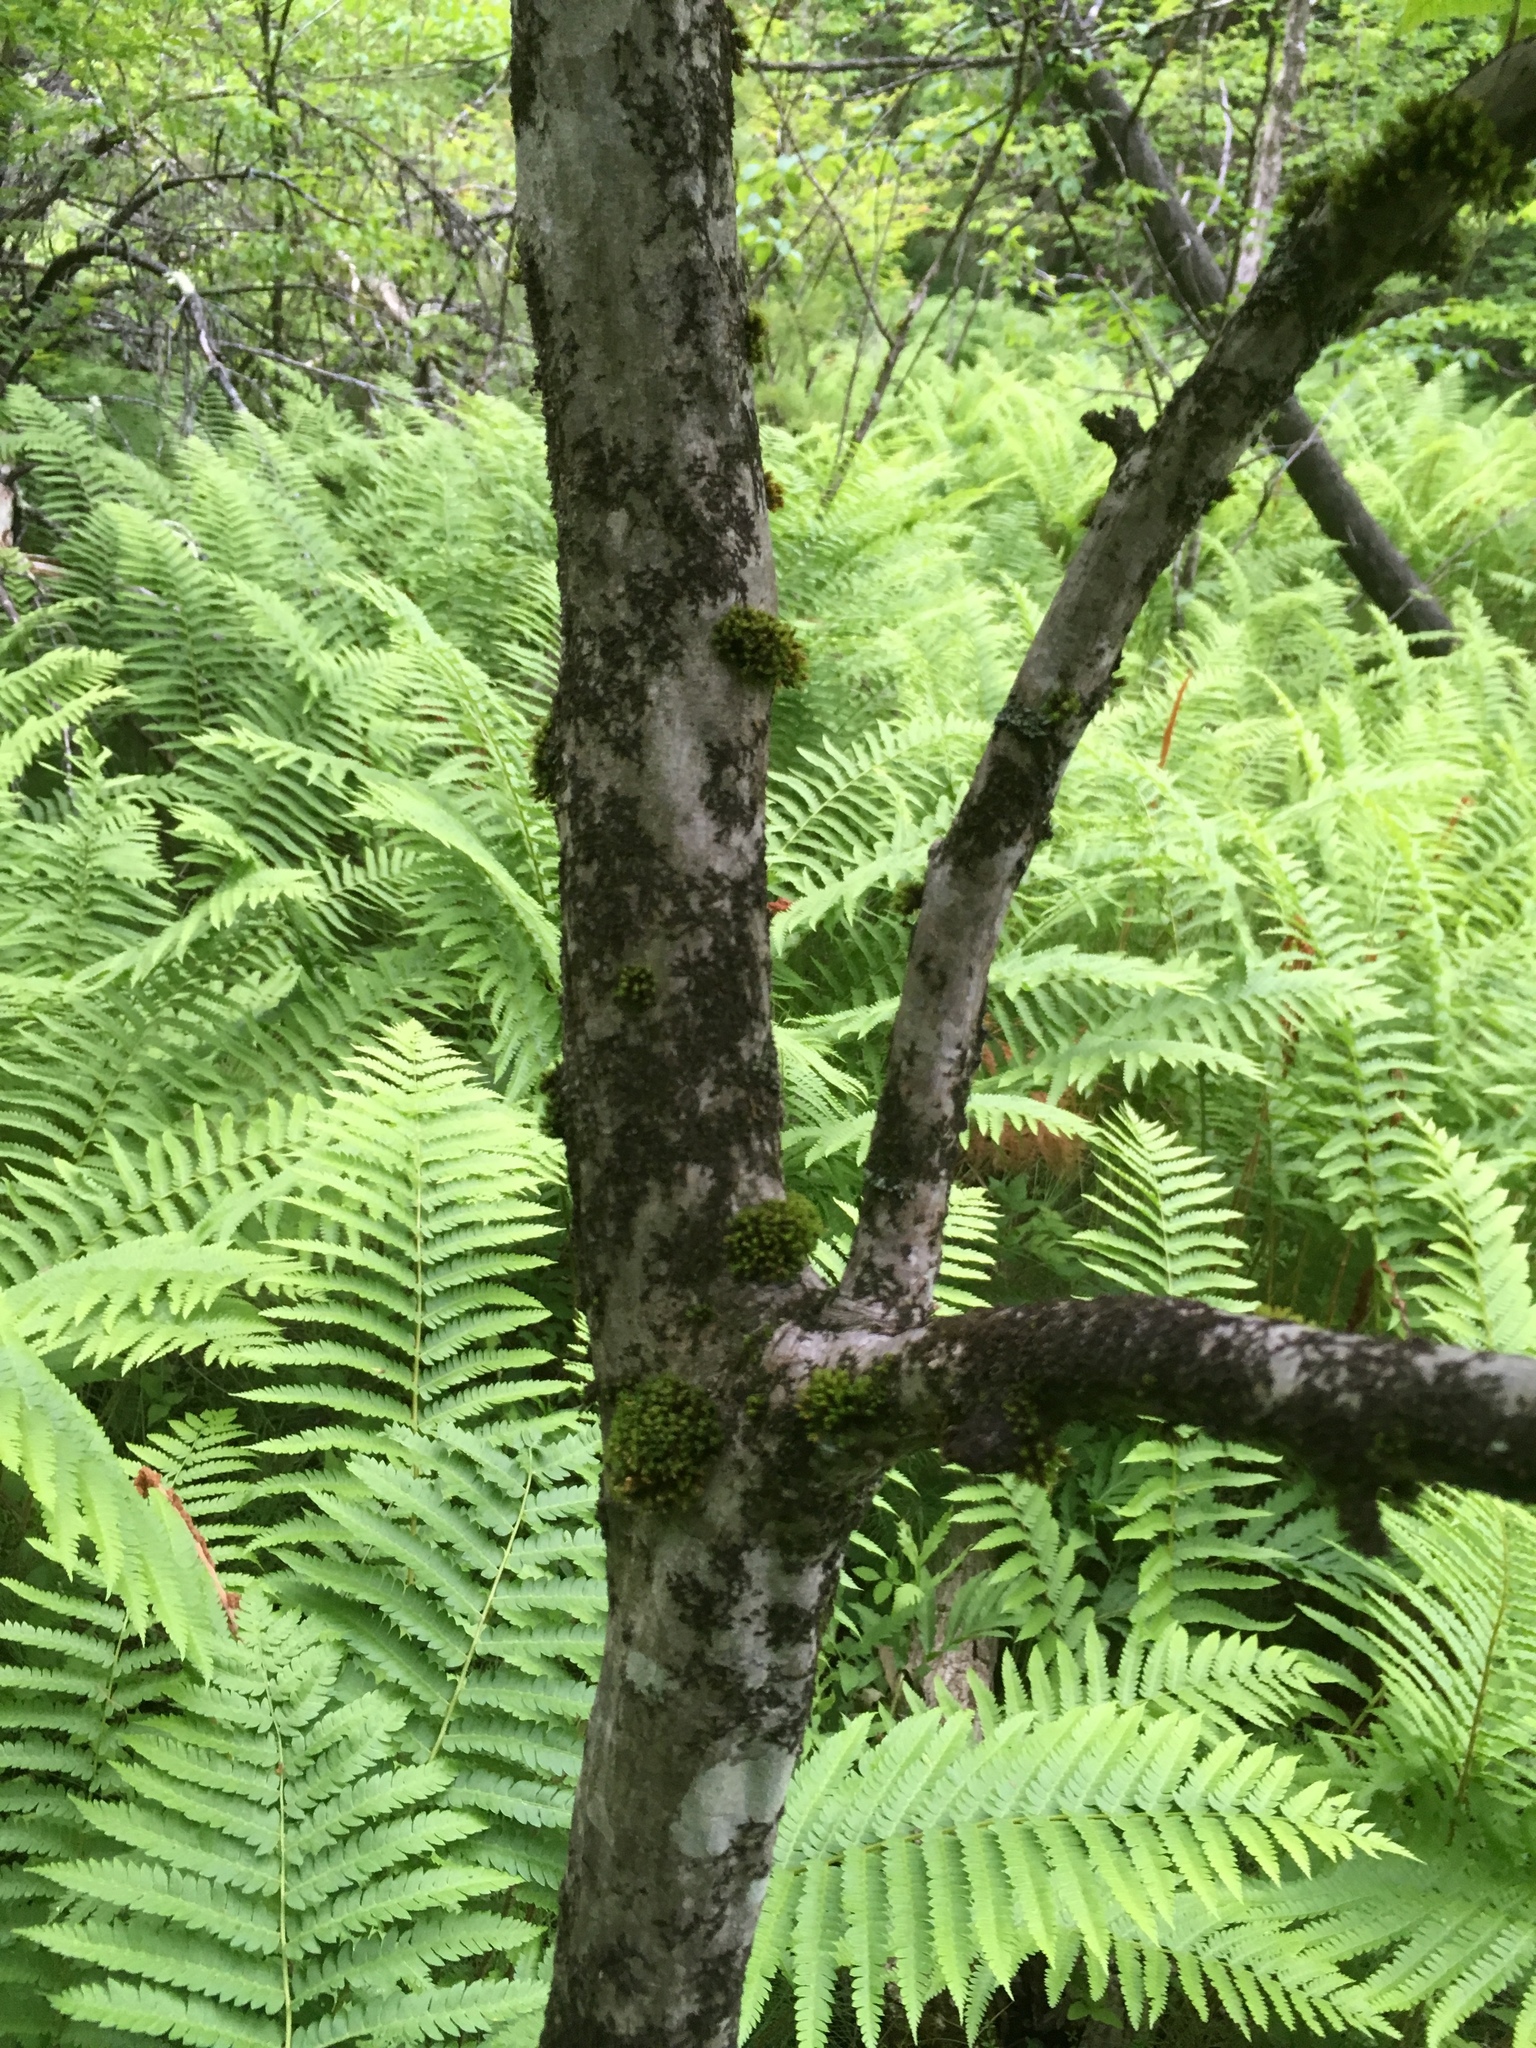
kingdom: Plantae
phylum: Tracheophyta
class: Magnoliopsida
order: Fagales
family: Betulaceae
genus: Carpinus
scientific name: Carpinus caroliniana
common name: American hornbeam
